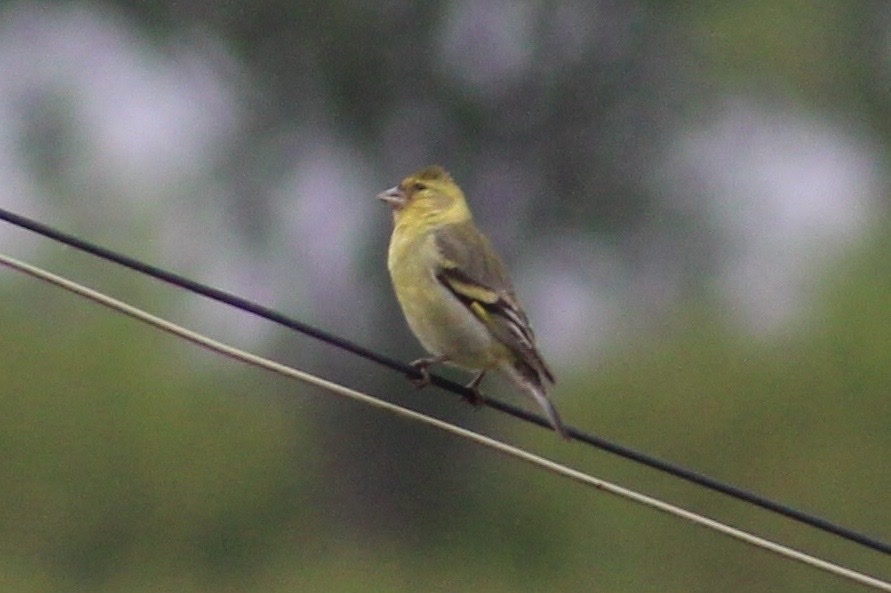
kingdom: Animalia
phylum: Chordata
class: Aves
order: Passeriformes
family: Fringillidae
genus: Spinus
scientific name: Spinus barbatus
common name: Black-chinned siskin
